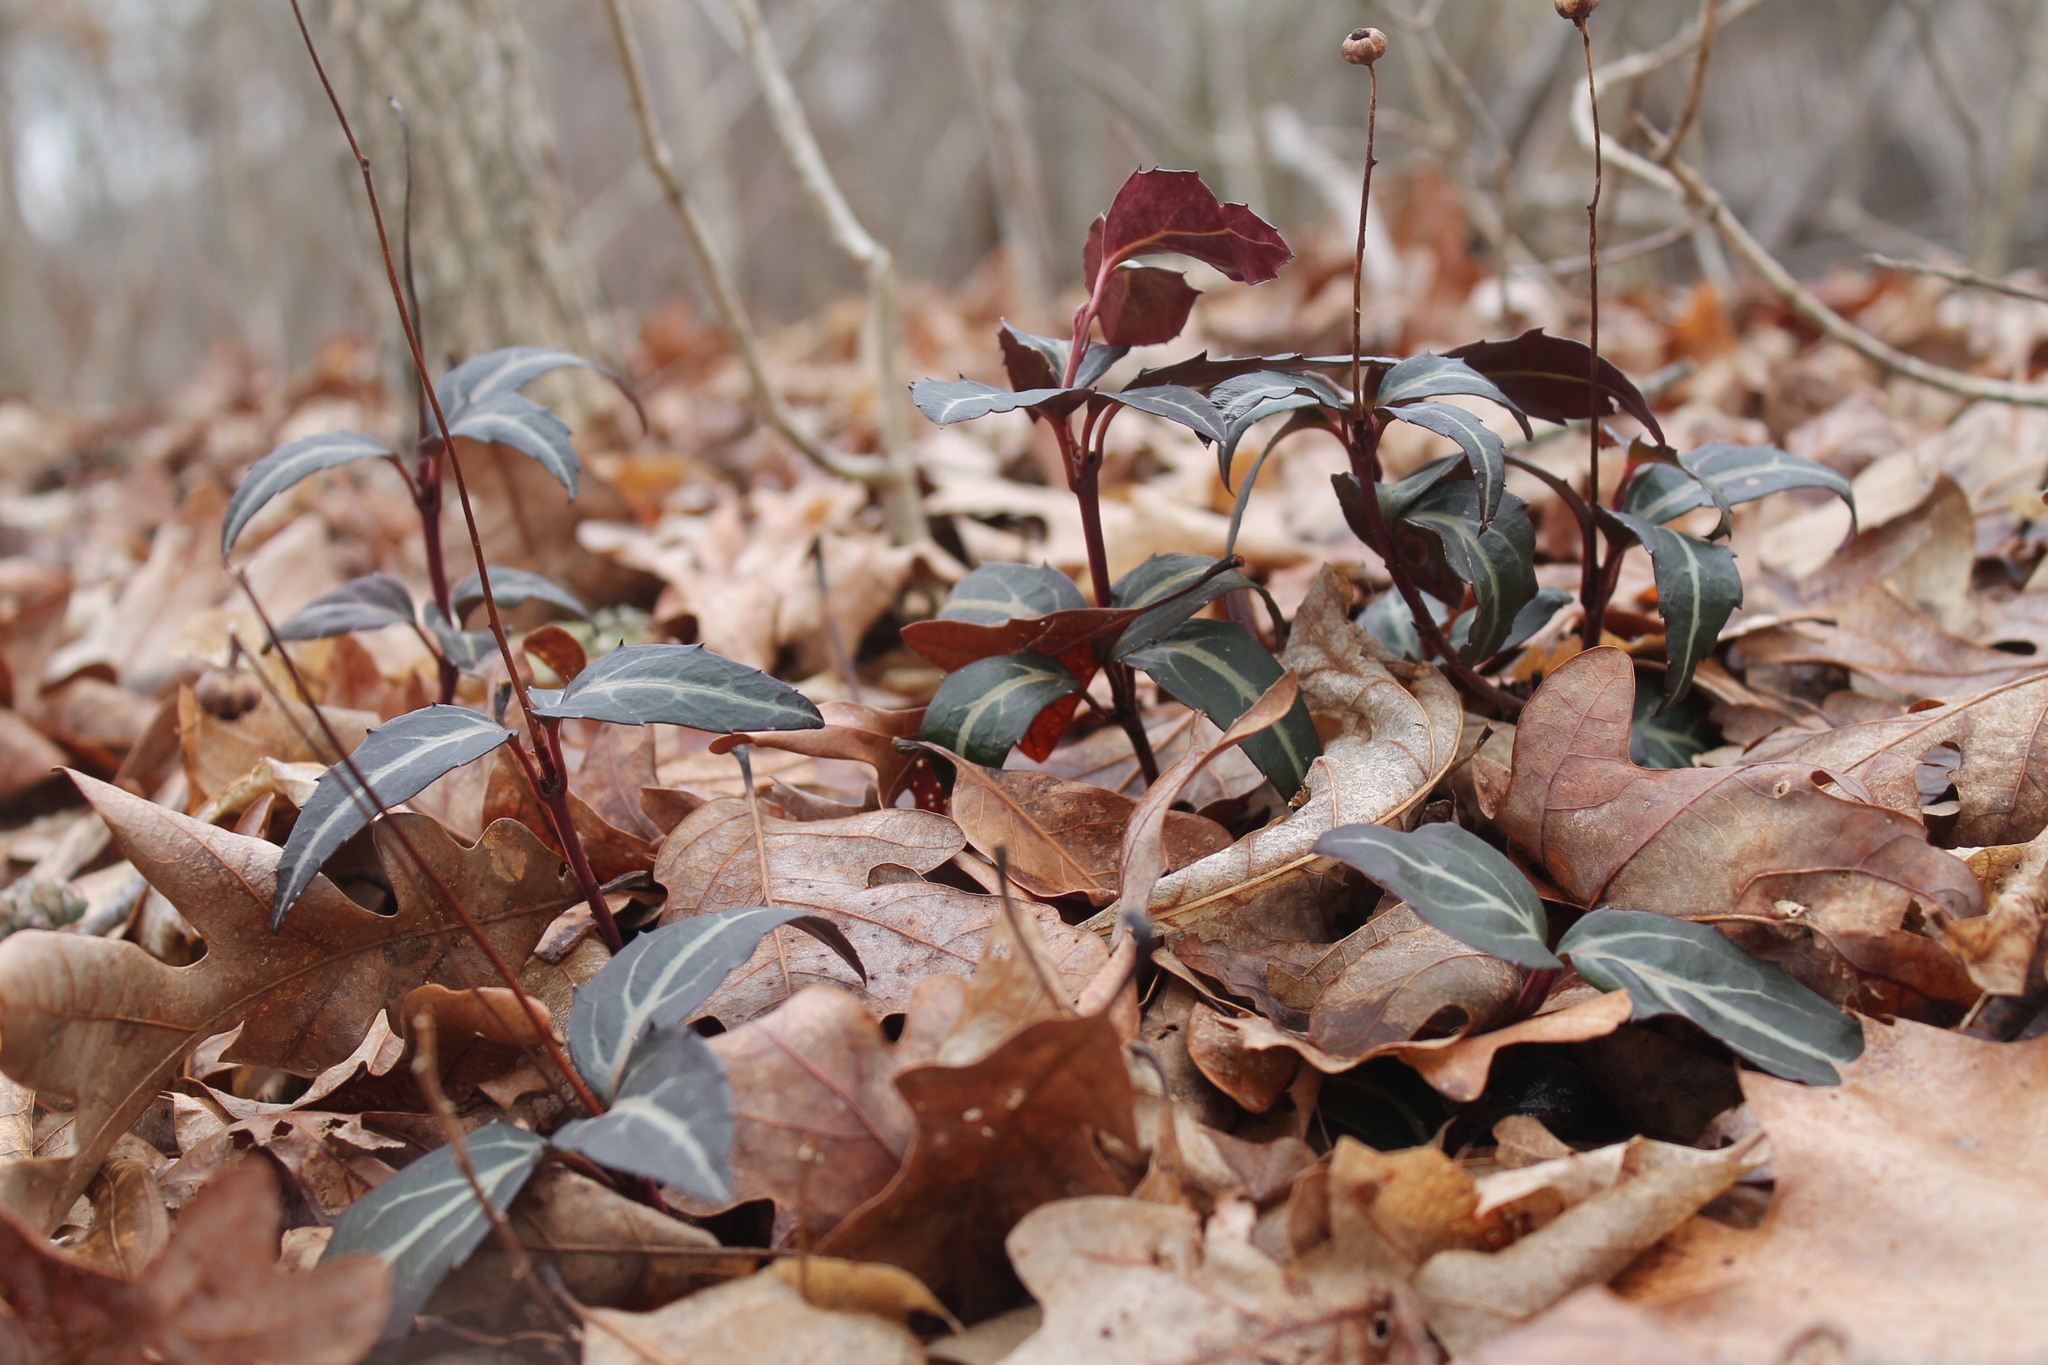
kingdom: Plantae
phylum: Tracheophyta
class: Magnoliopsida
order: Ericales
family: Ericaceae
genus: Chimaphila
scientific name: Chimaphila maculata
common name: Spotted pipsissewa
